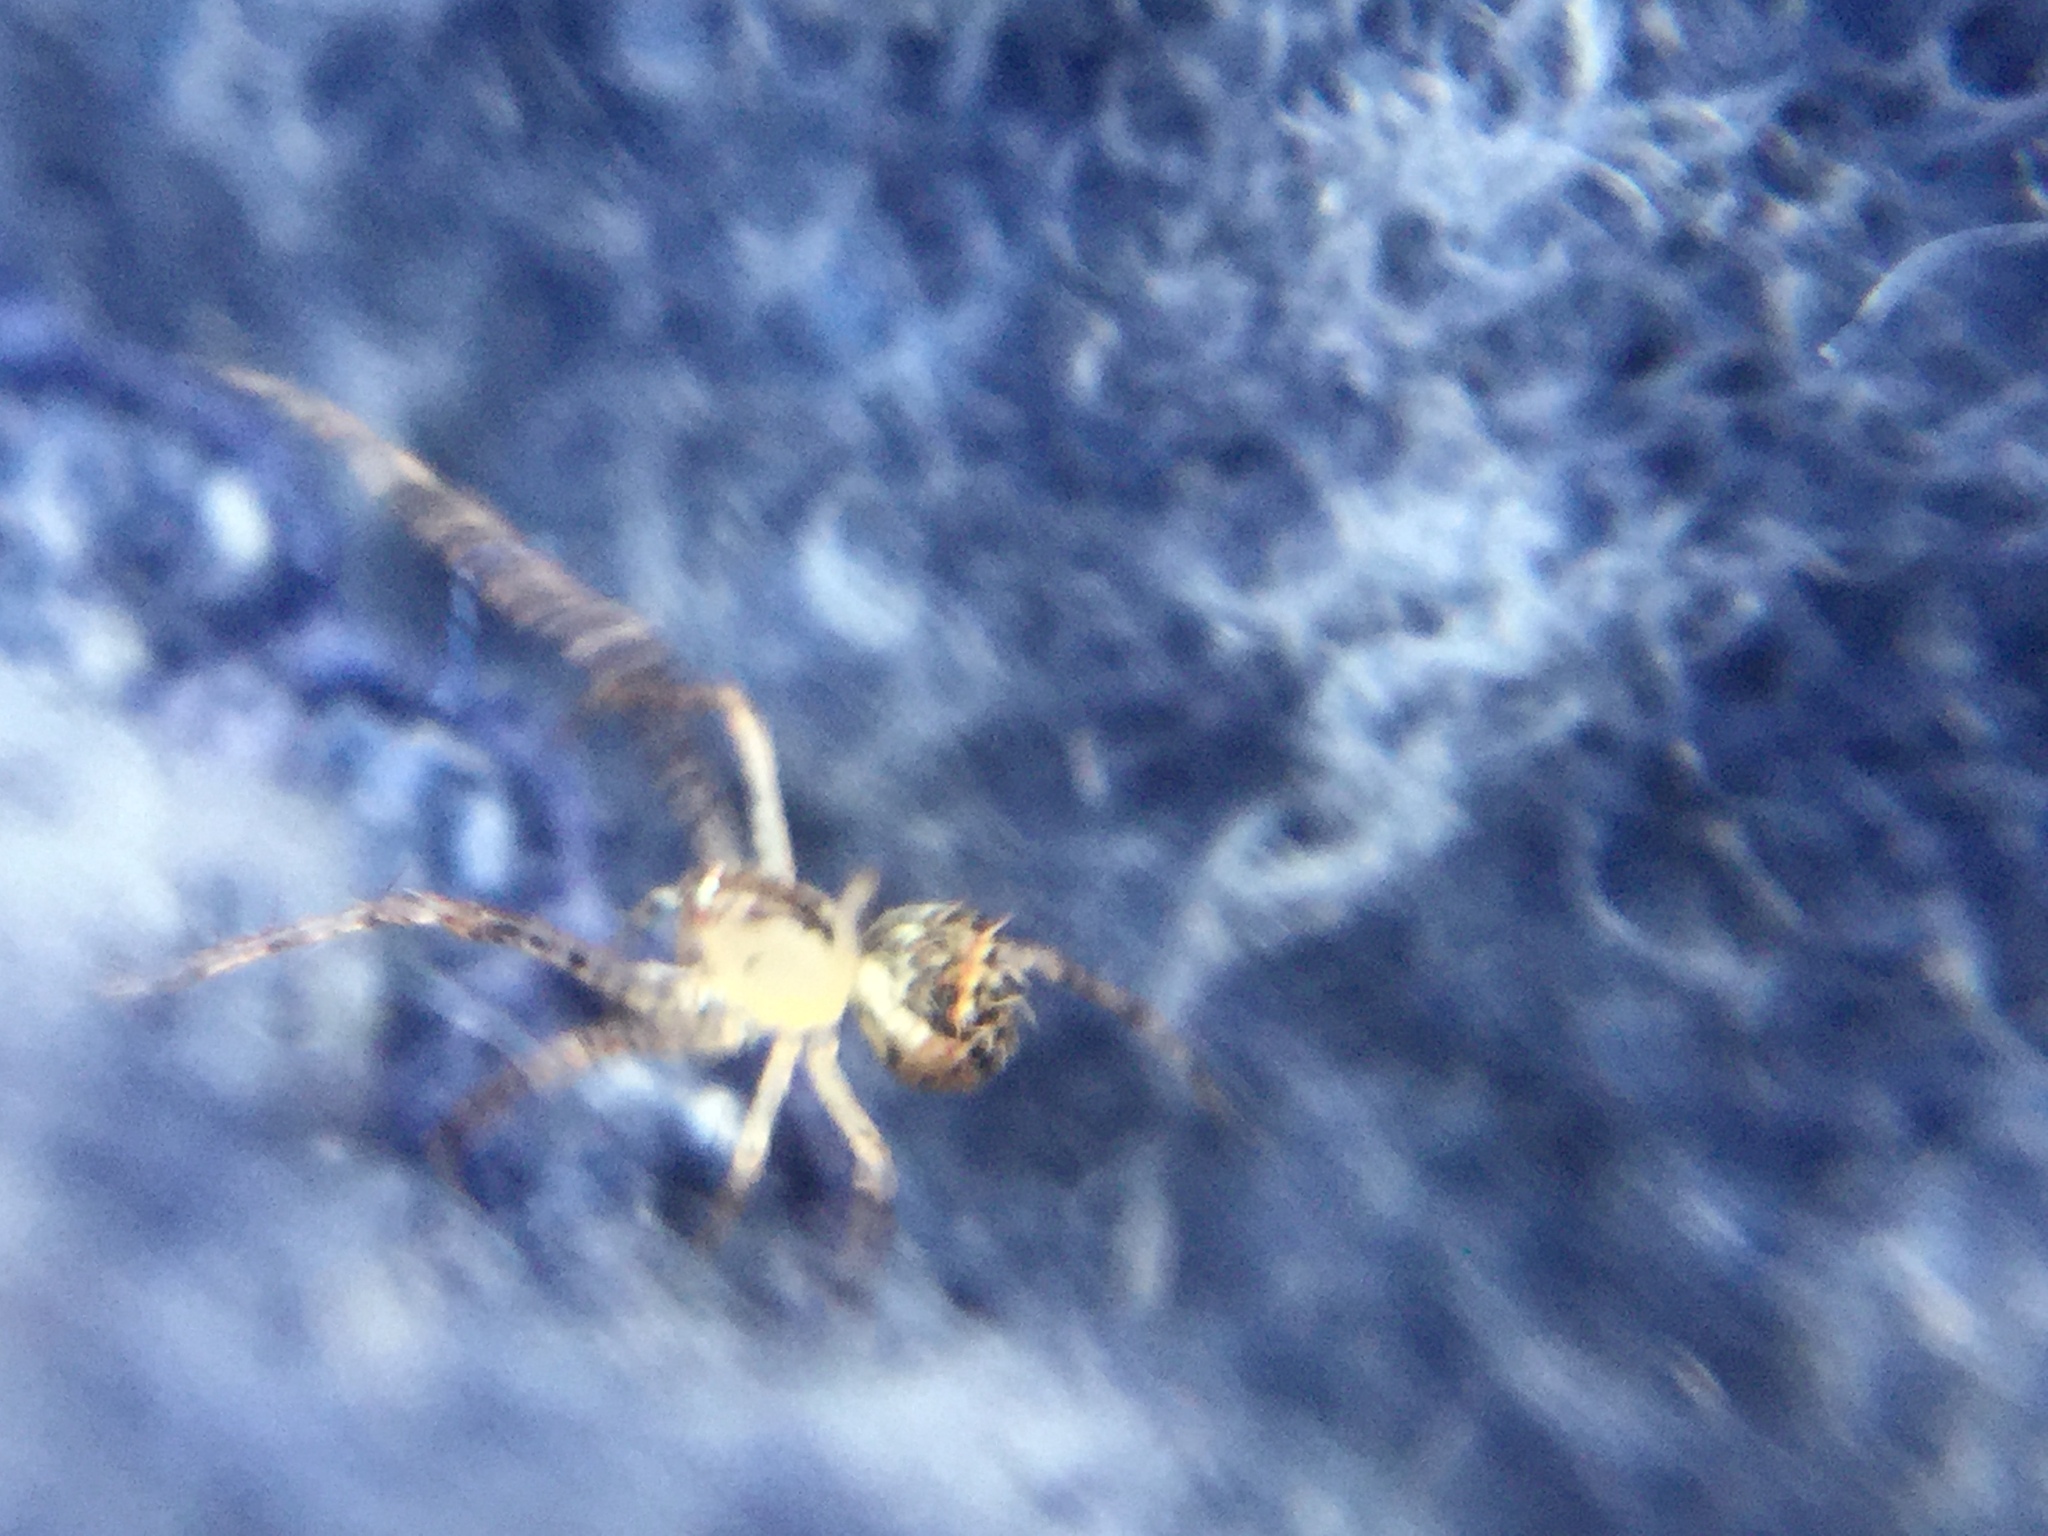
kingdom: Animalia
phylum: Arthropoda
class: Arachnida
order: Araneae
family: Mimetidae
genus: Mimetus
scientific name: Mimetus puritanus
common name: Common pirate spider
